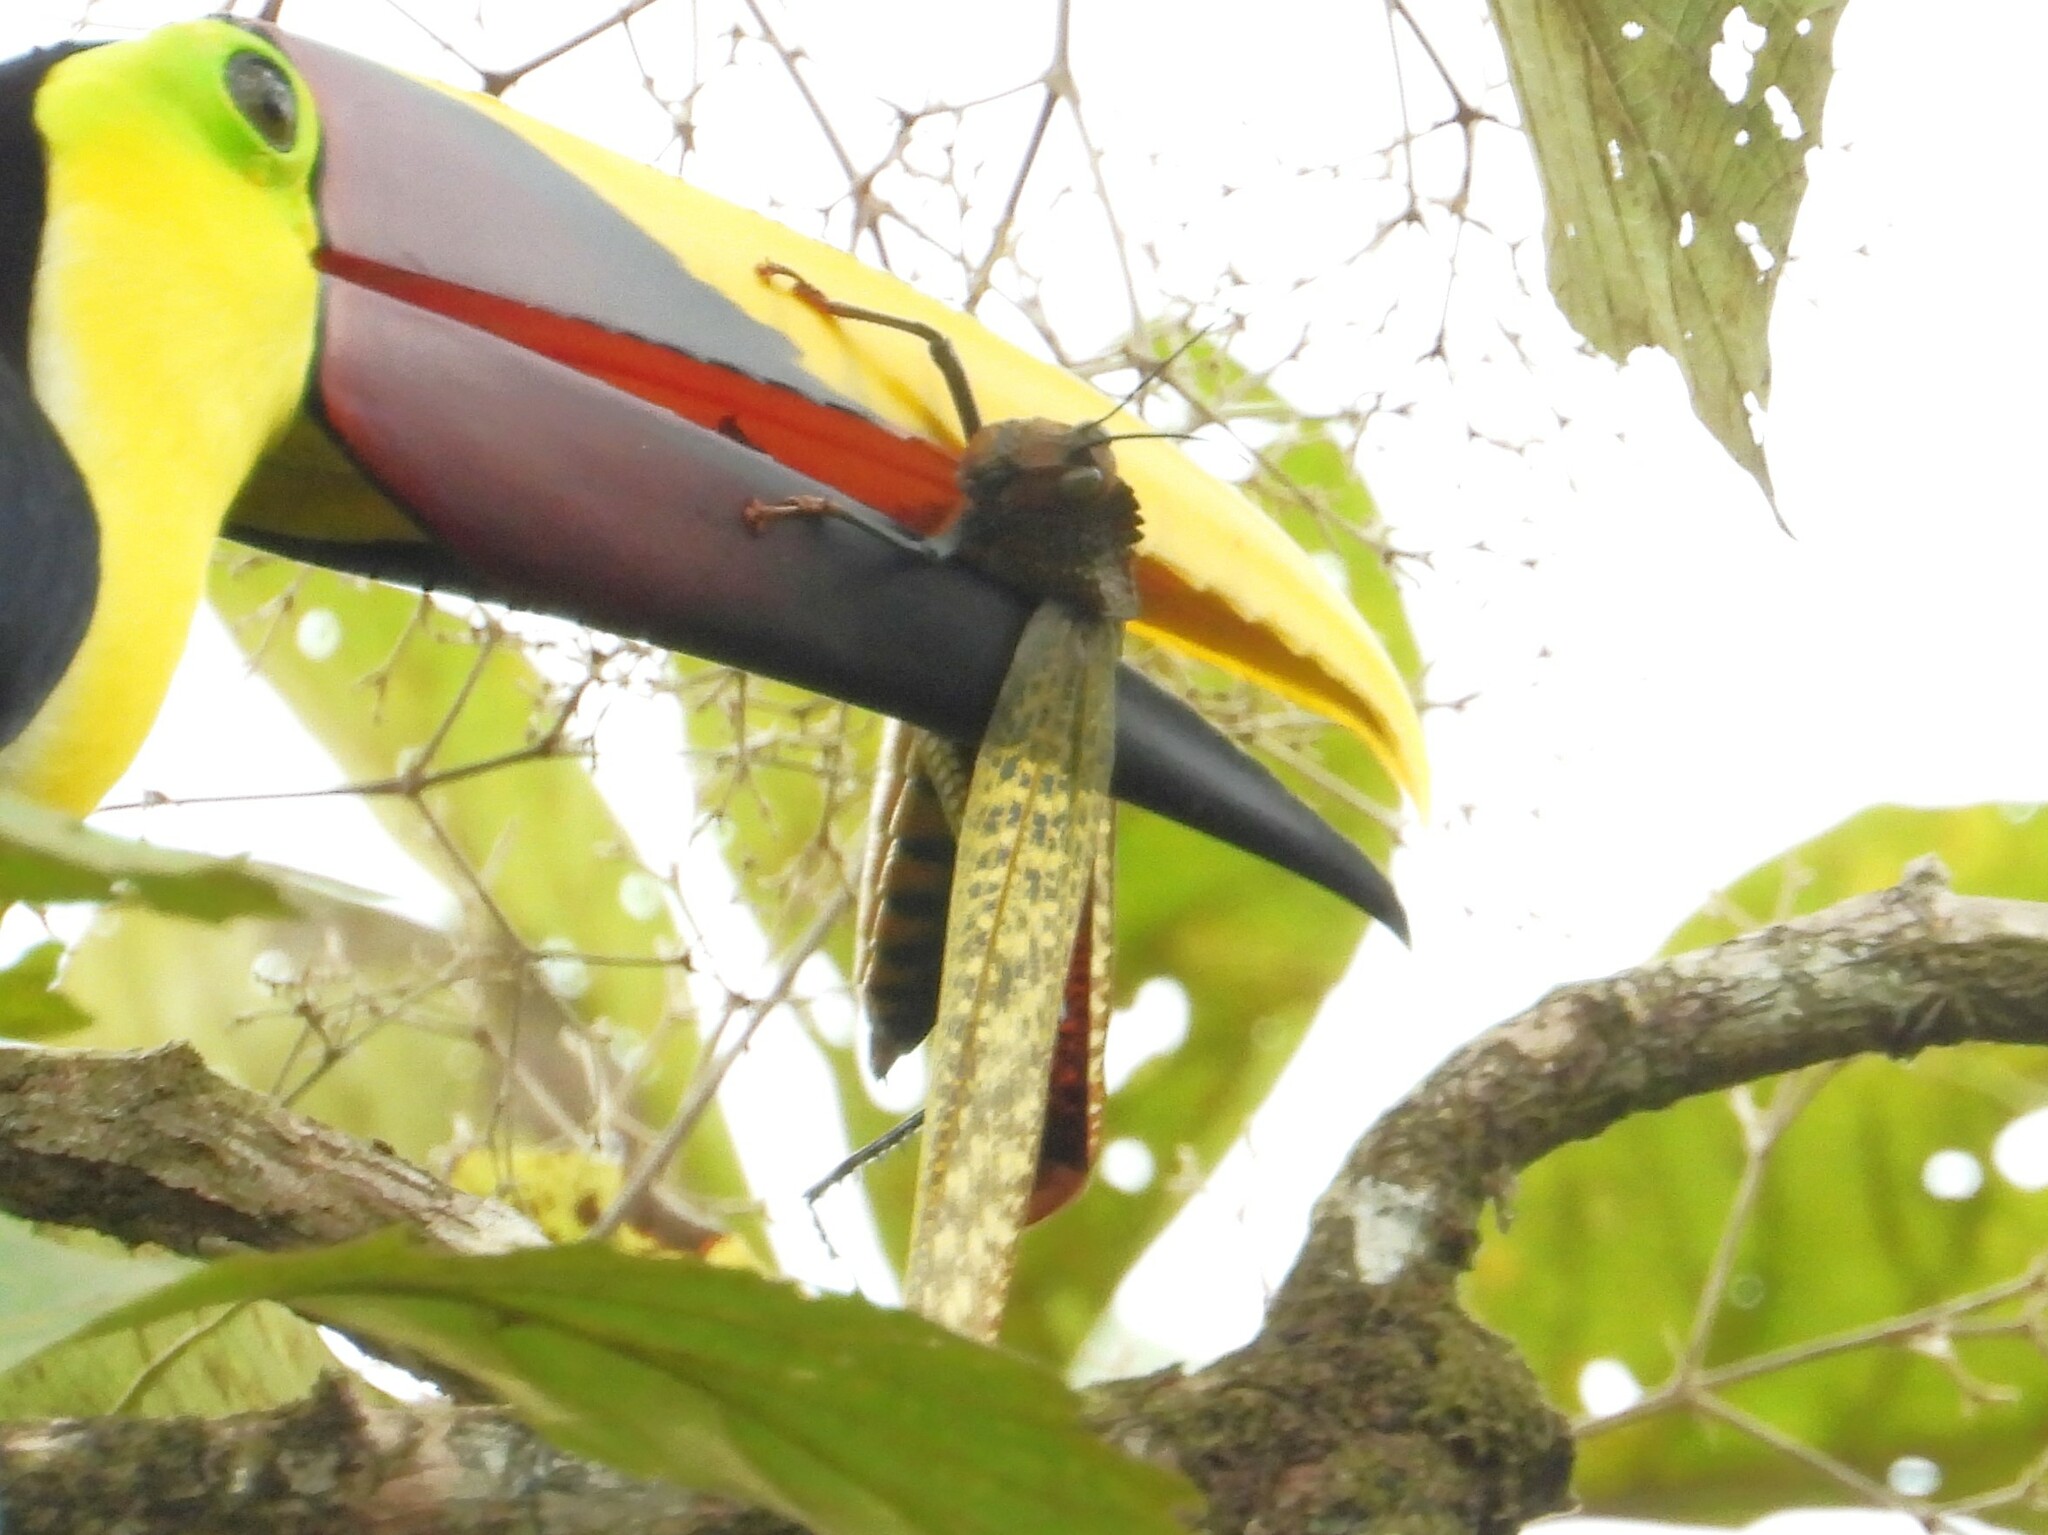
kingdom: Animalia
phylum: Arthropoda
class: Insecta
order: Orthoptera
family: Romaleidae
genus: Tropidacris
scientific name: Tropidacris cristata
